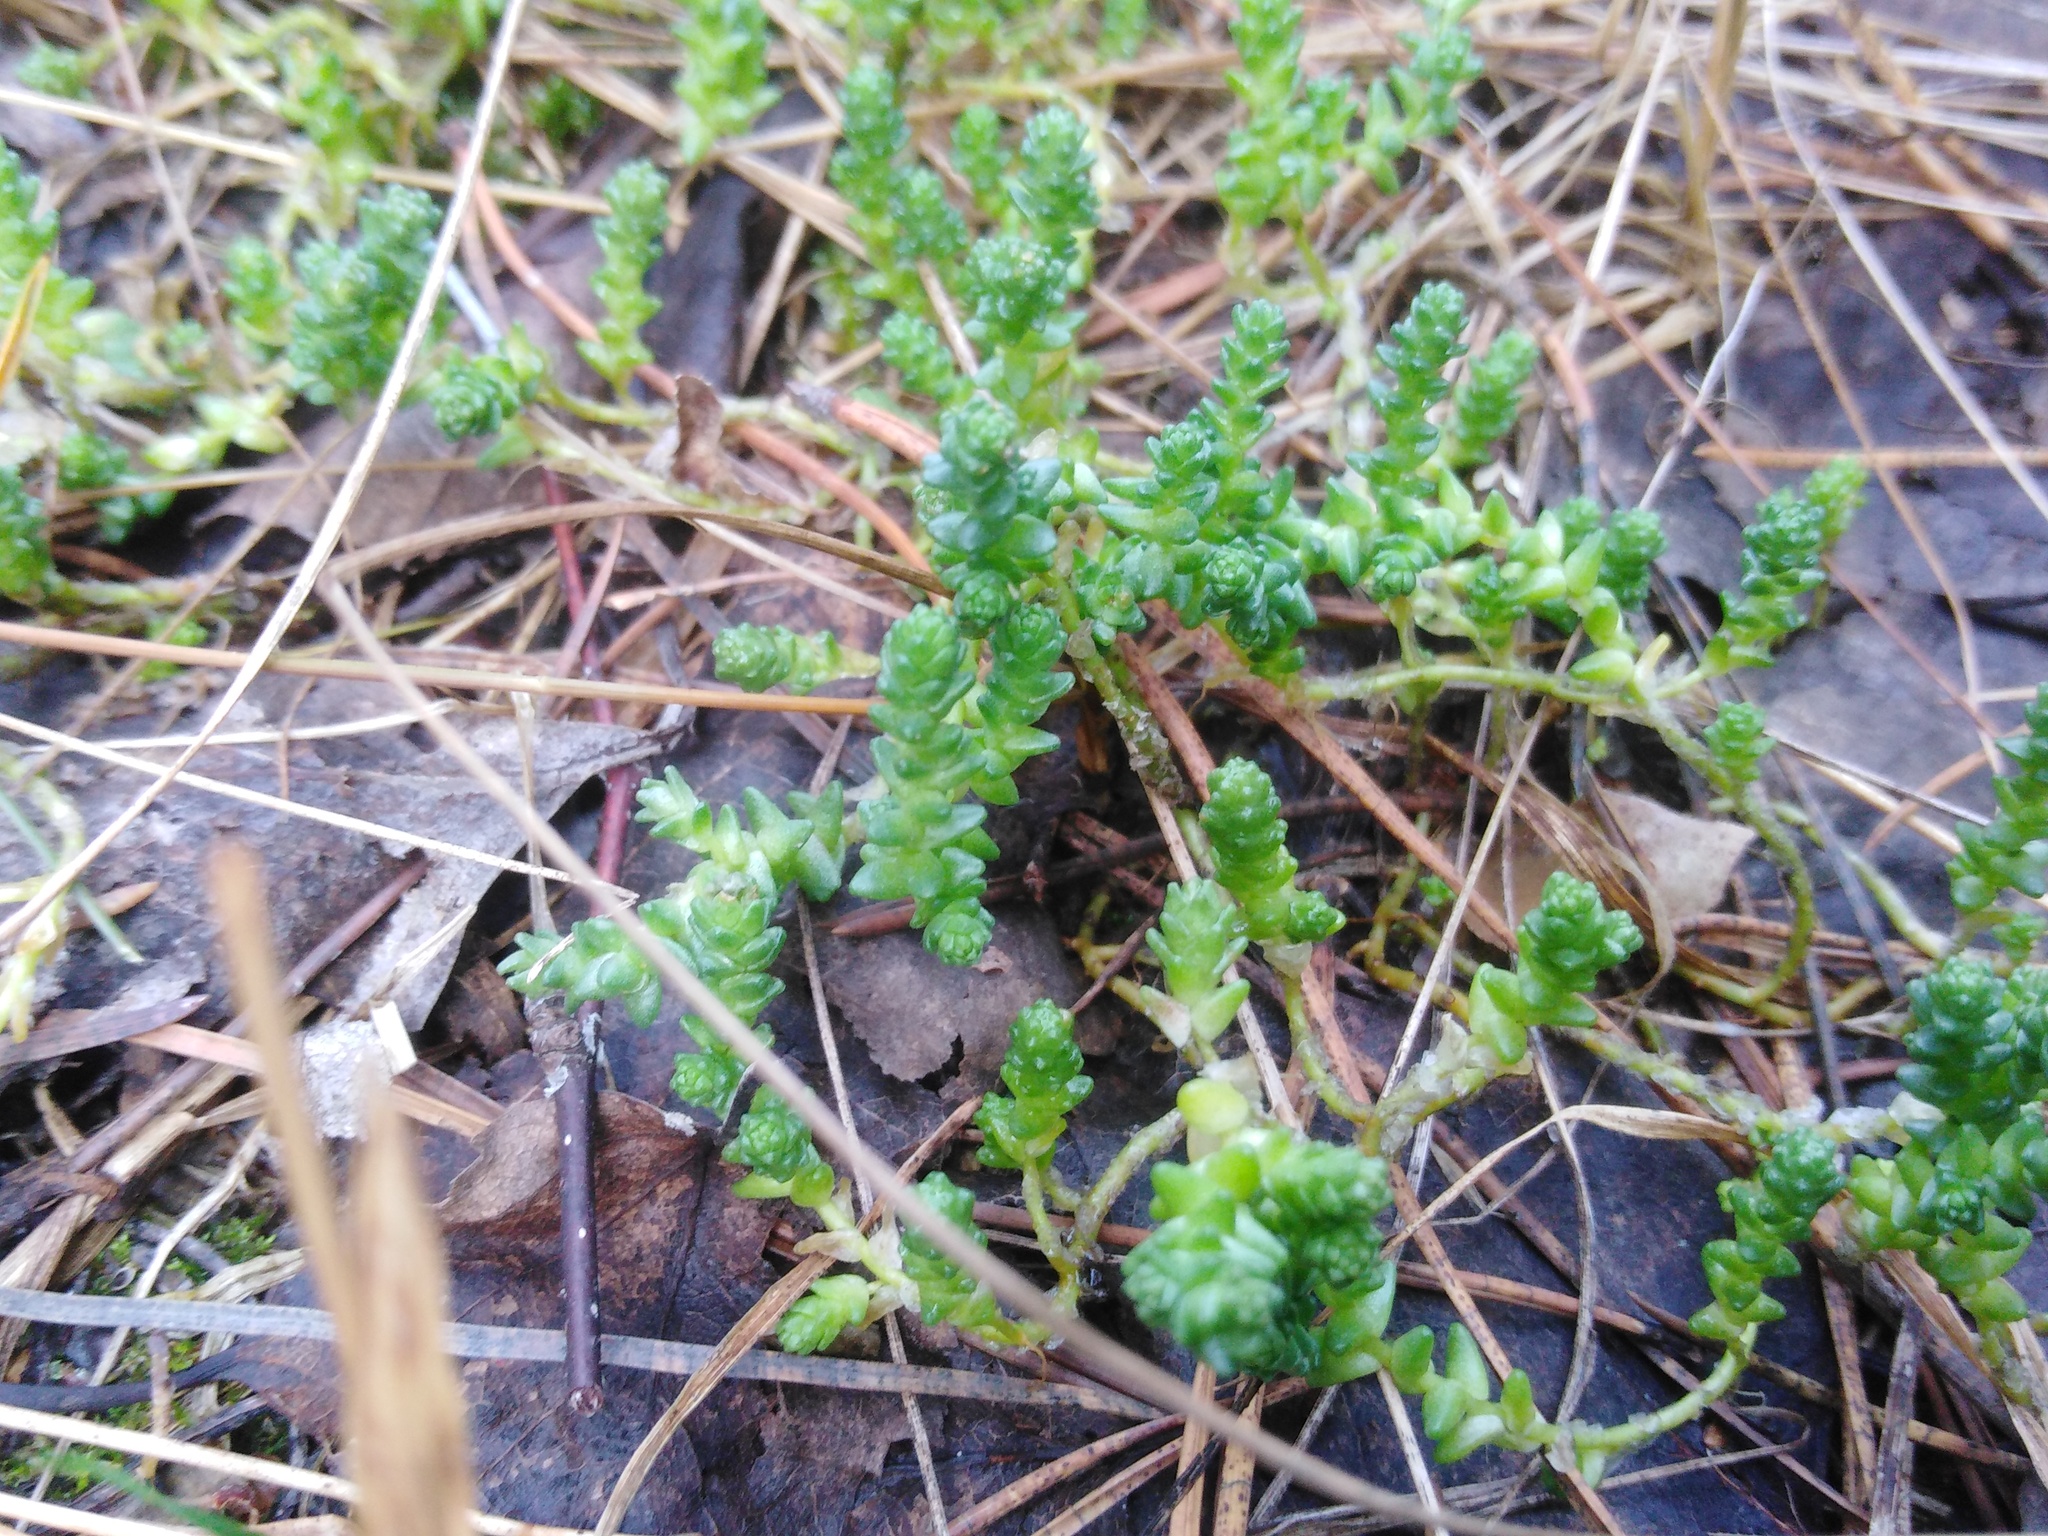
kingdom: Plantae
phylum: Tracheophyta
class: Magnoliopsida
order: Saxifragales
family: Crassulaceae
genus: Sedum
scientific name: Sedum acre
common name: Biting stonecrop
